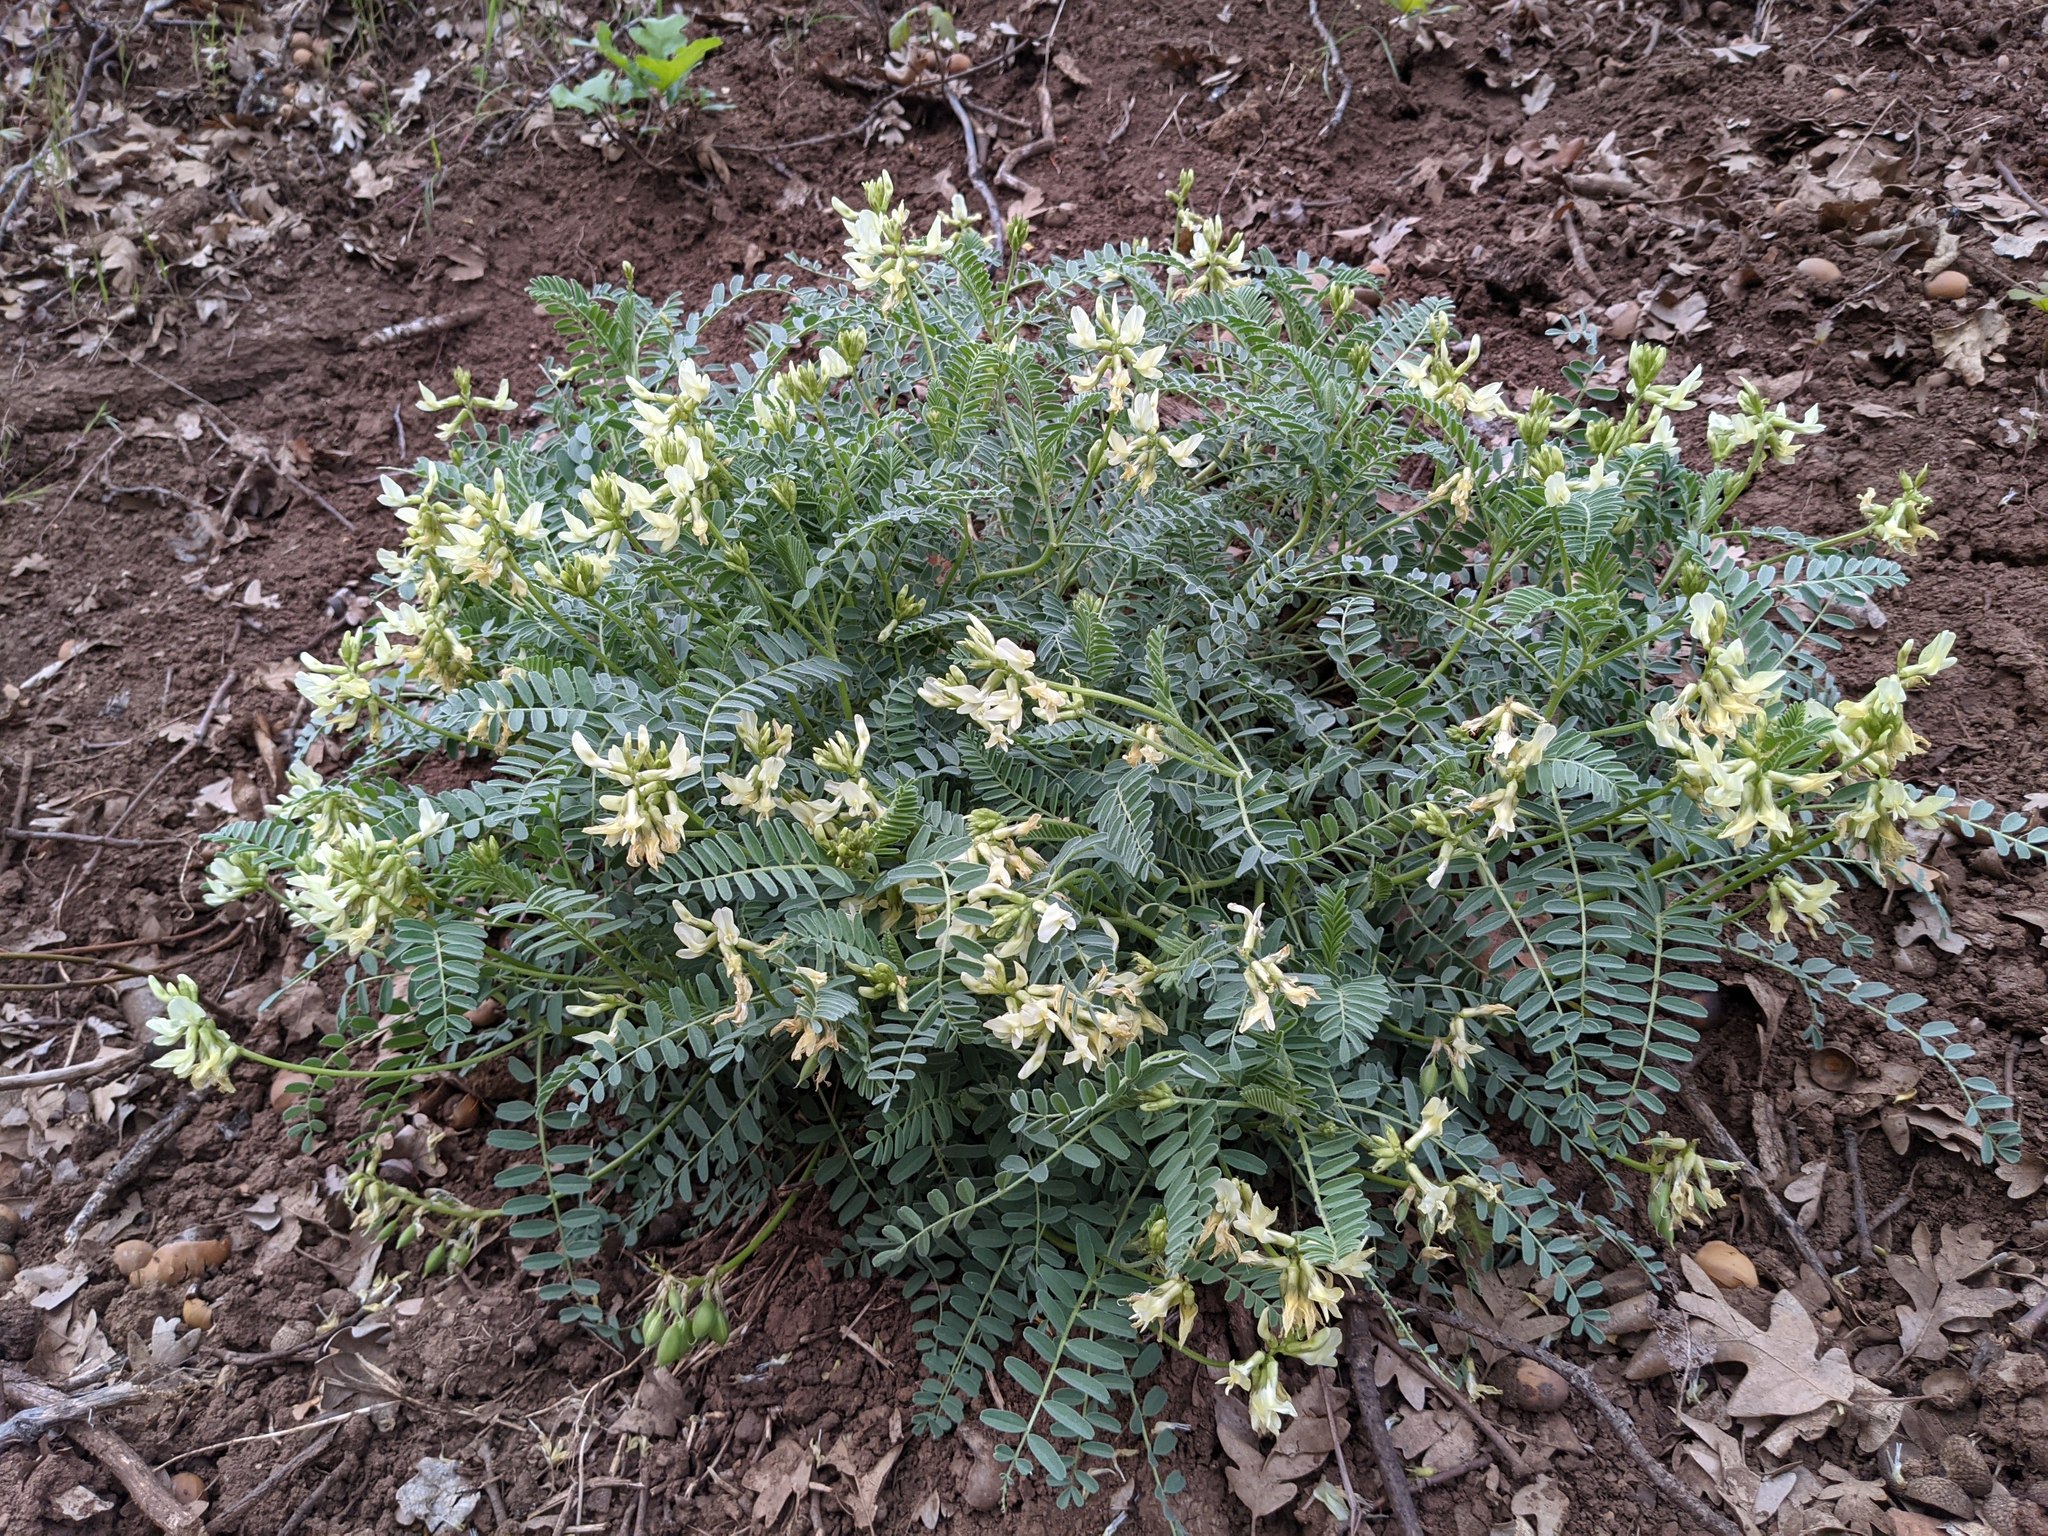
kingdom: Plantae
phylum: Tracheophyta
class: Magnoliopsida
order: Fabales
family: Fabaceae
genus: Astragalus
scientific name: Astragalus accidens
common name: Rogue river milkvetch
